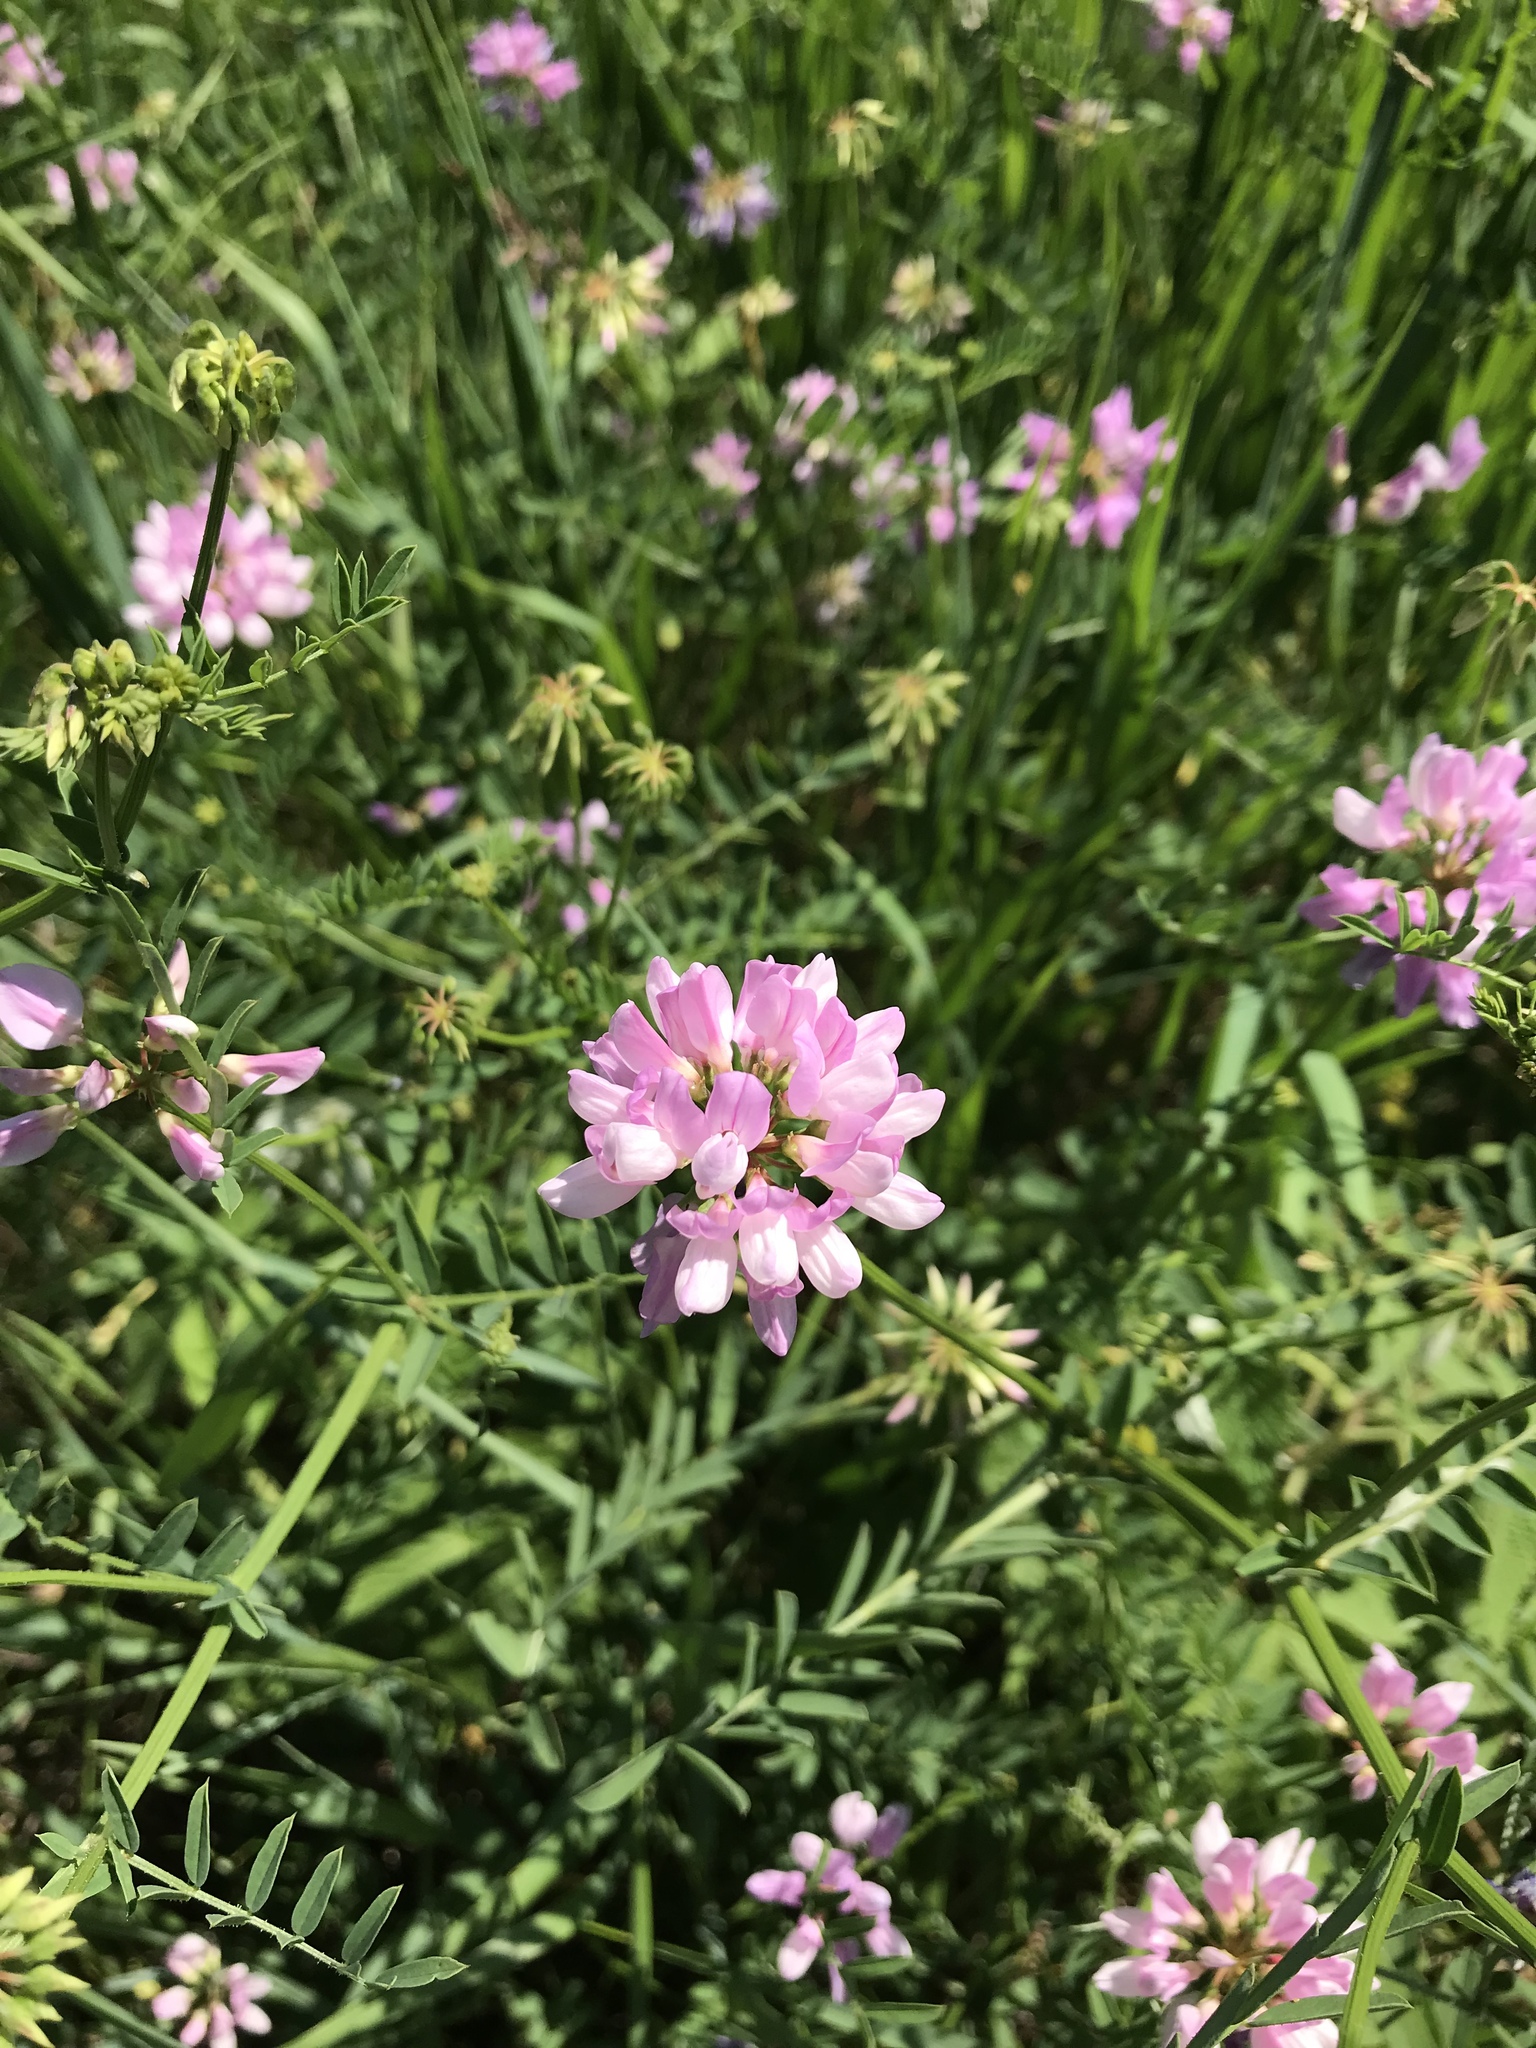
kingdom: Plantae
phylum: Tracheophyta
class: Magnoliopsida
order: Fabales
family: Fabaceae
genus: Coronilla
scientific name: Coronilla varia
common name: Crownvetch
